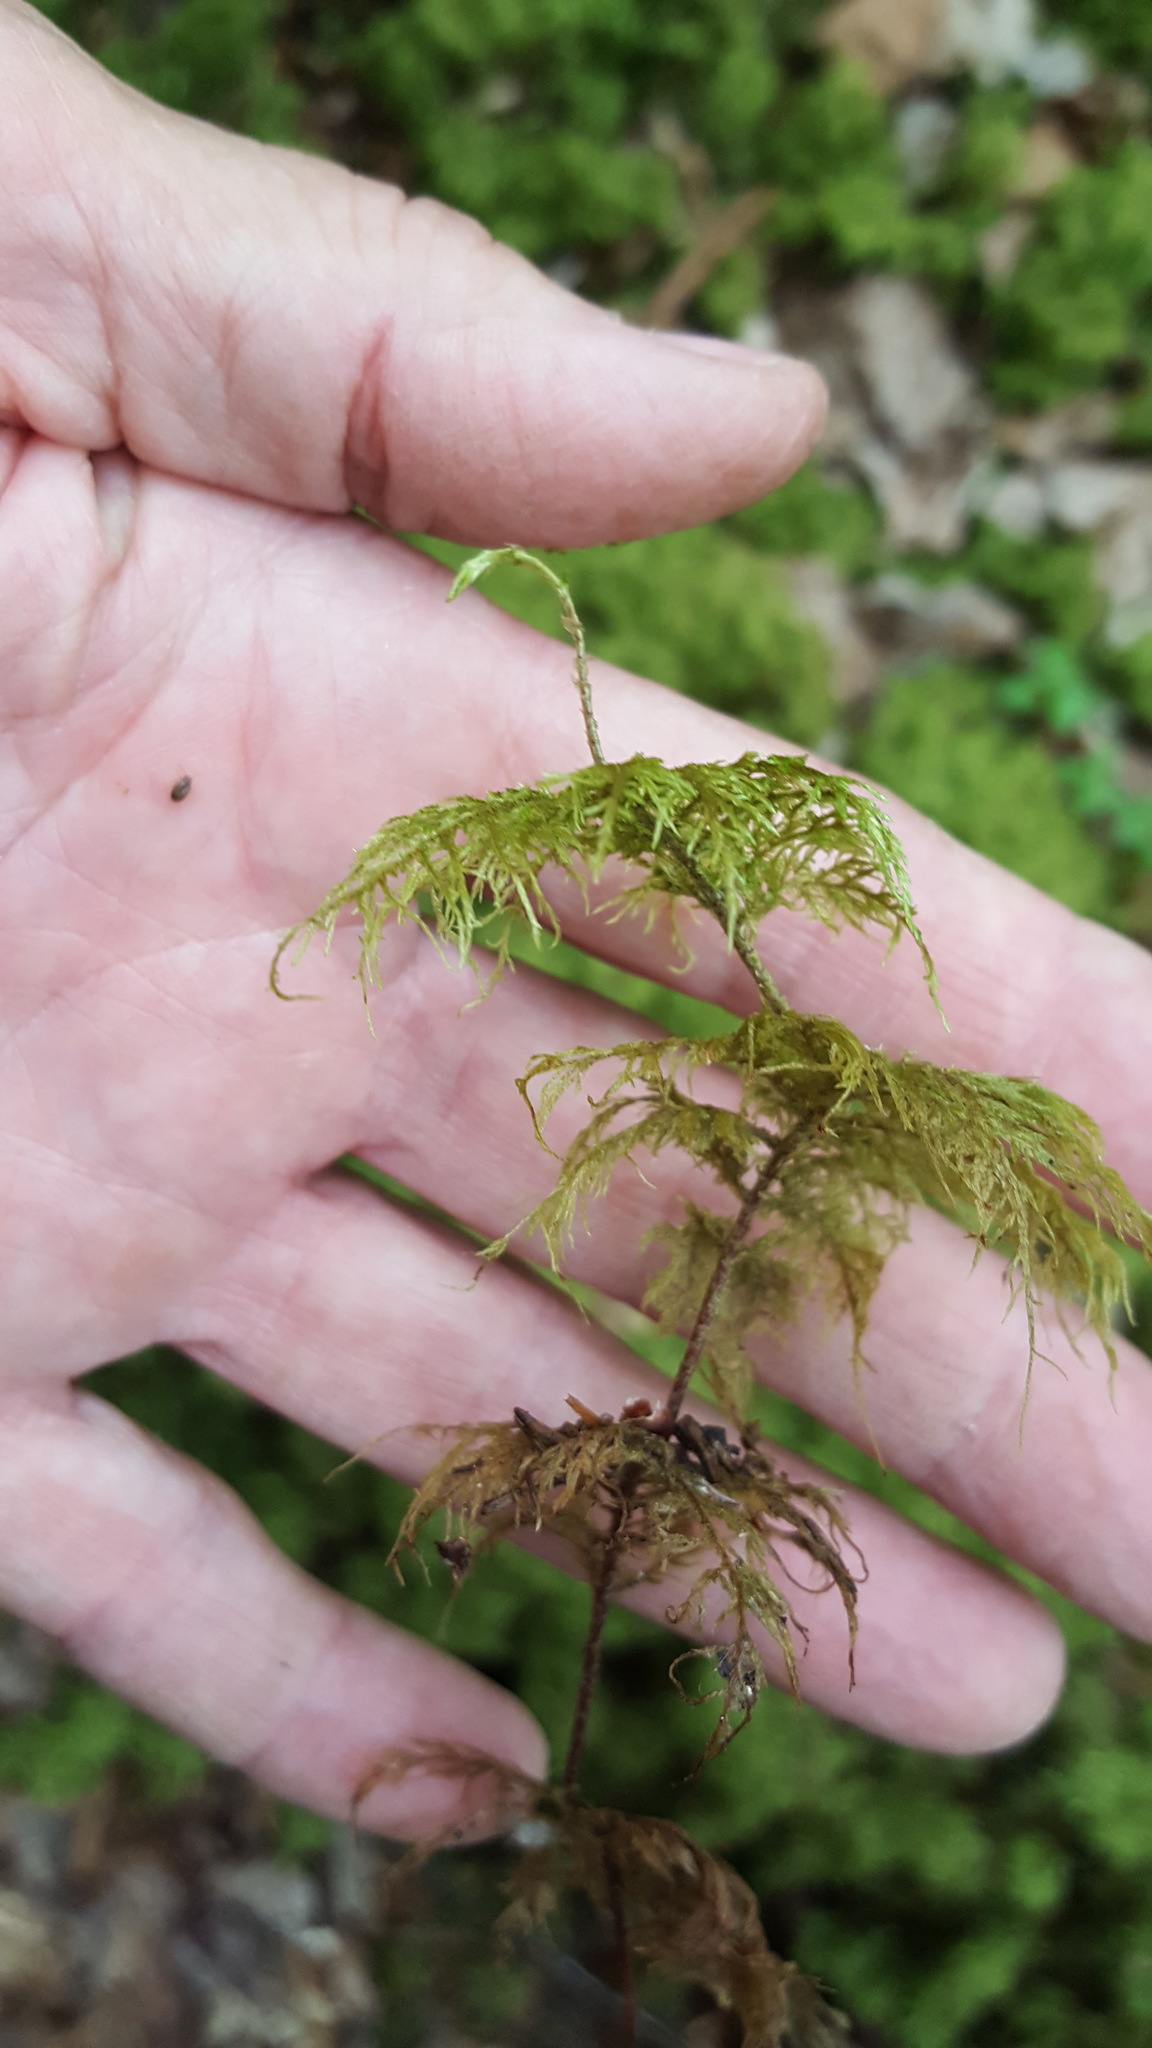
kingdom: Plantae
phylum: Bryophyta
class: Bryopsida
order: Hypnales
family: Hylocomiaceae
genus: Hylocomium
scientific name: Hylocomium splendens
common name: Stairstep moss
